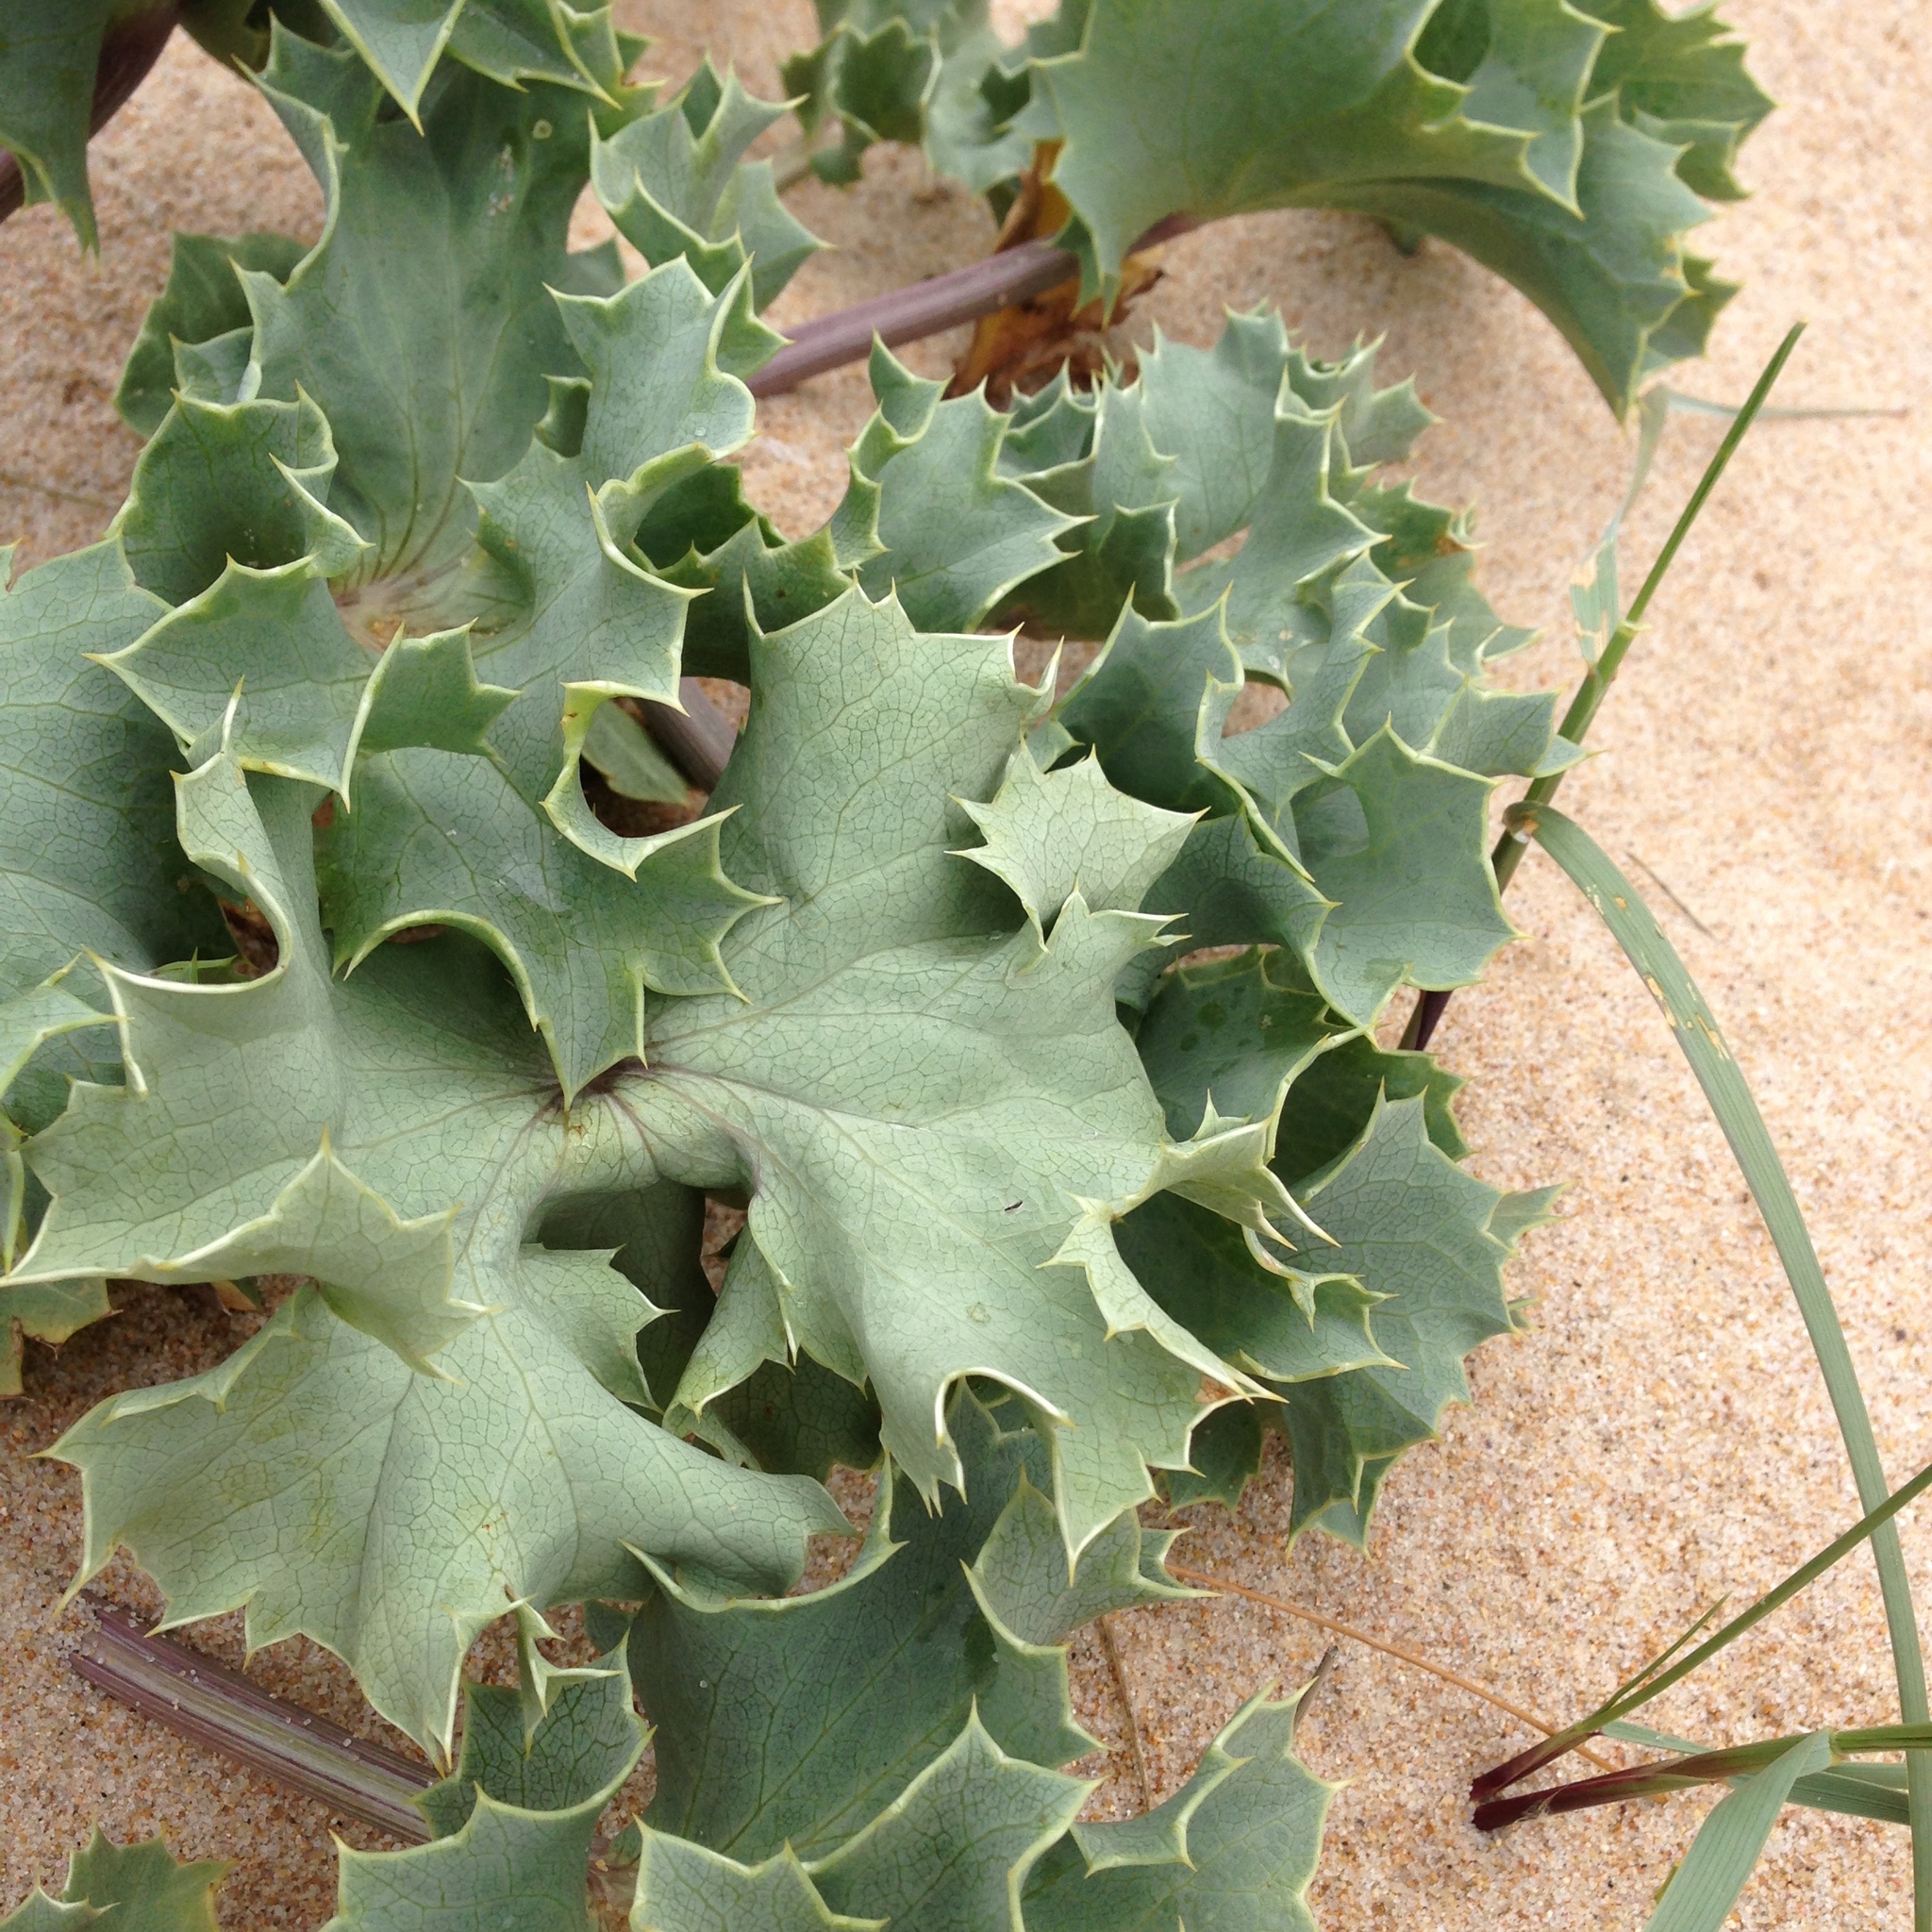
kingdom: Plantae
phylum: Tracheophyta
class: Magnoliopsida
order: Apiales
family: Apiaceae
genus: Eryngium
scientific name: Eryngium maritimum
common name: Sea-holly
